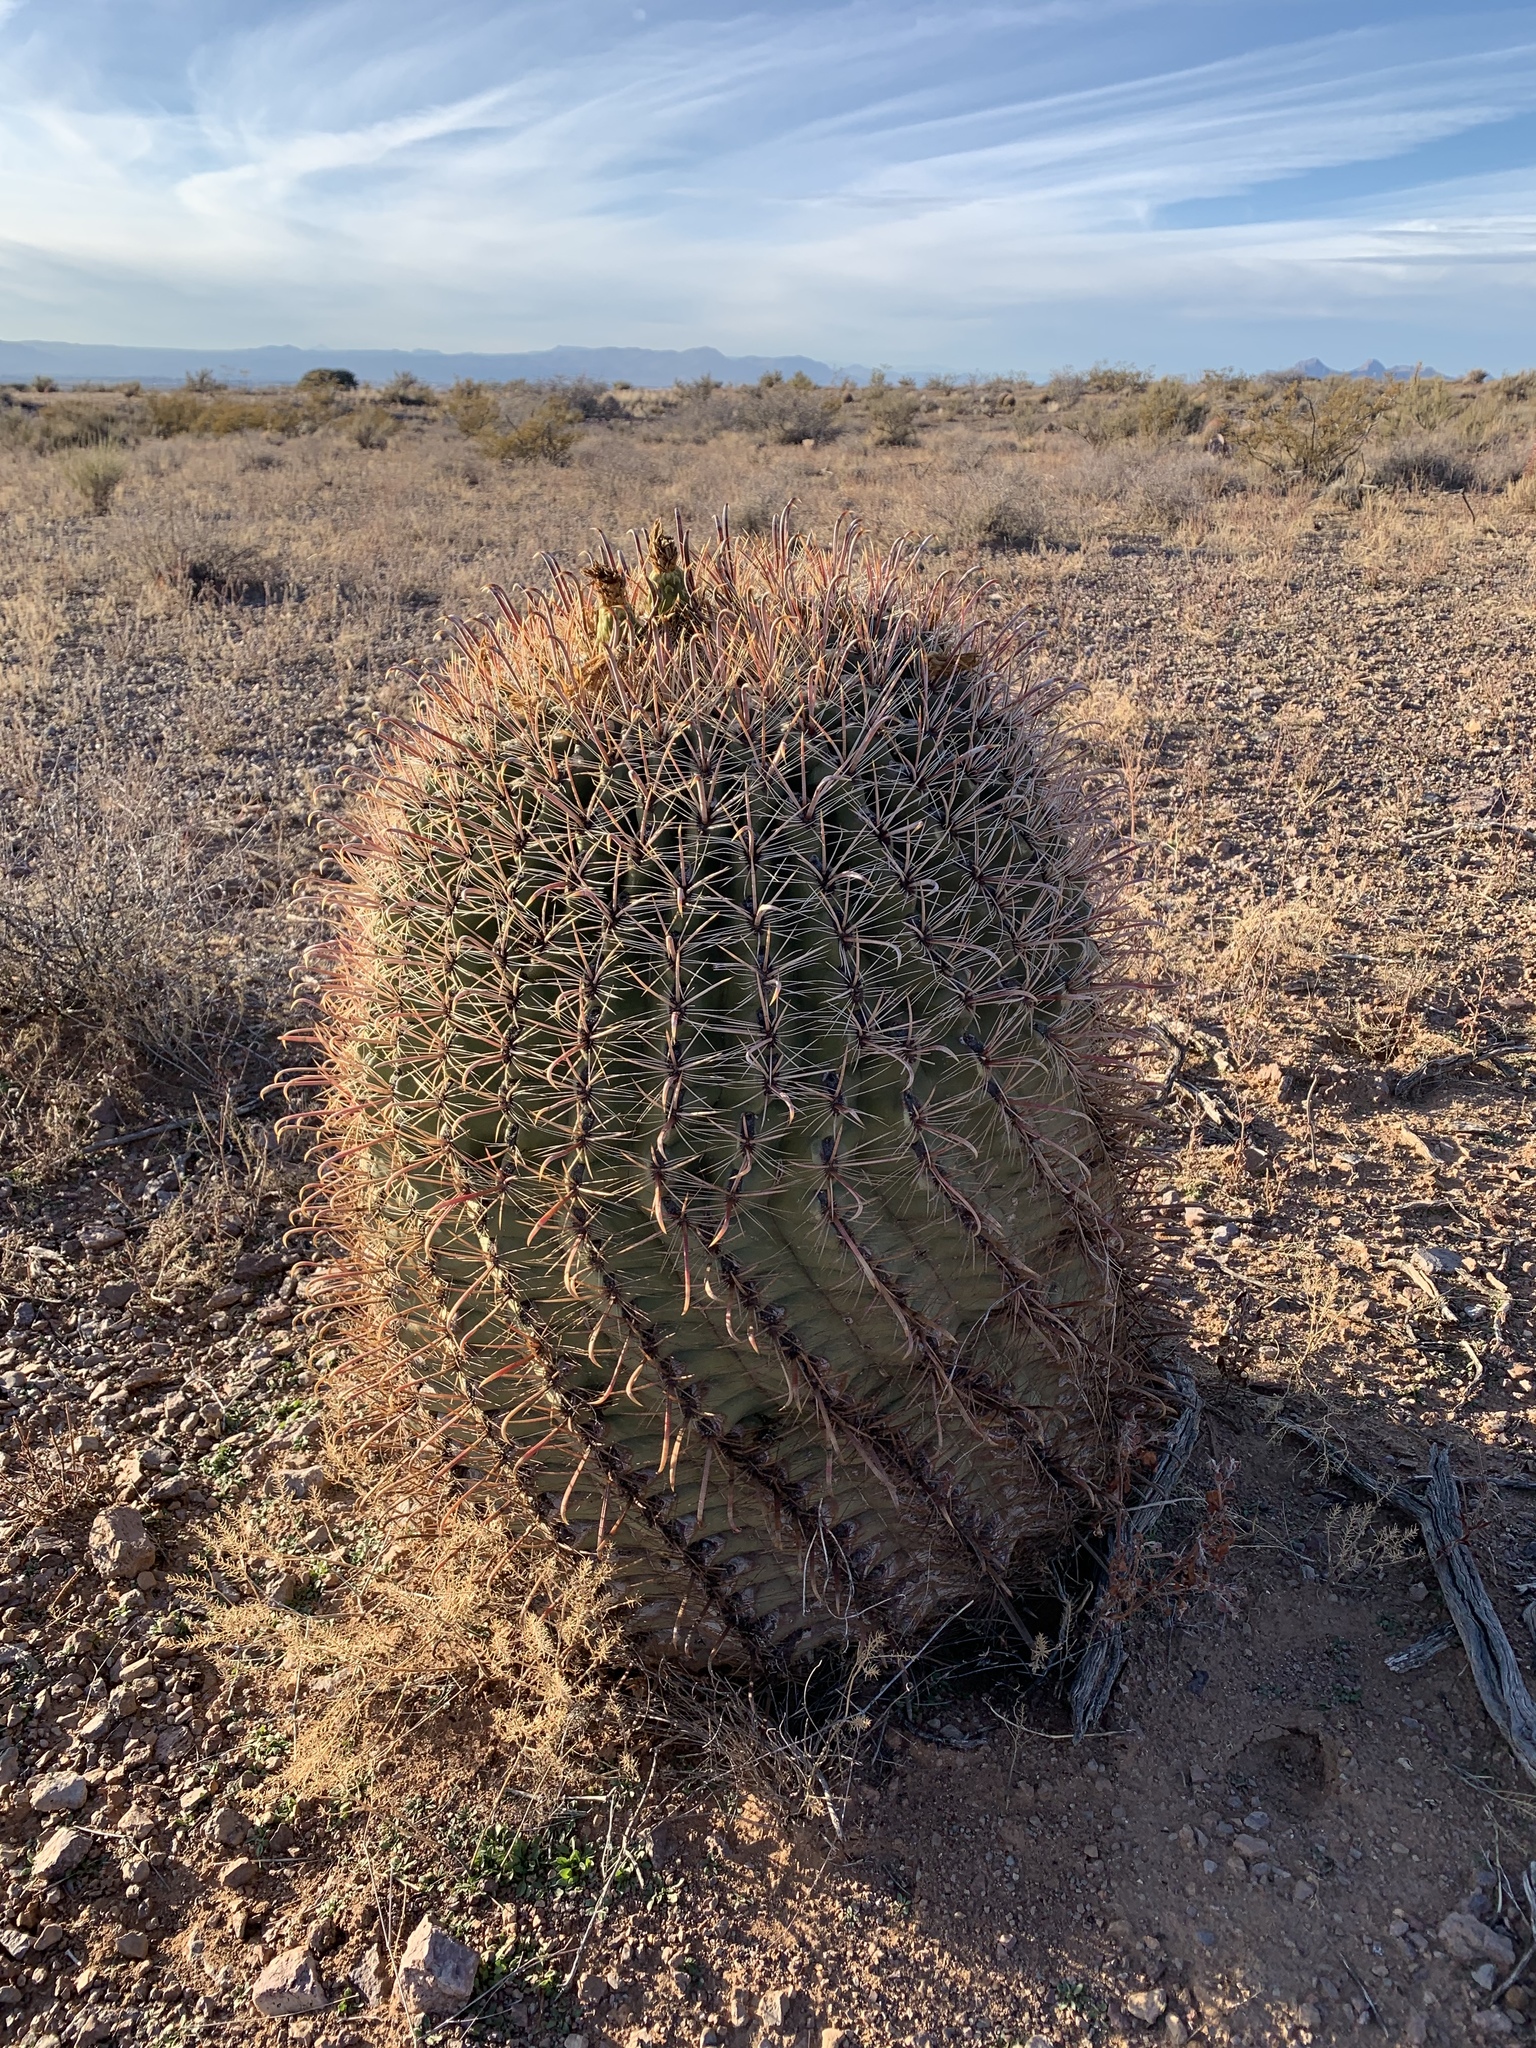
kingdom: Plantae
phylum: Tracheophyta
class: Magnoliopsida
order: Caryophyllales
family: Cactaceae
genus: Ferocactus
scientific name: Ferocactus wislizeni
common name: Candy barrel cactus
